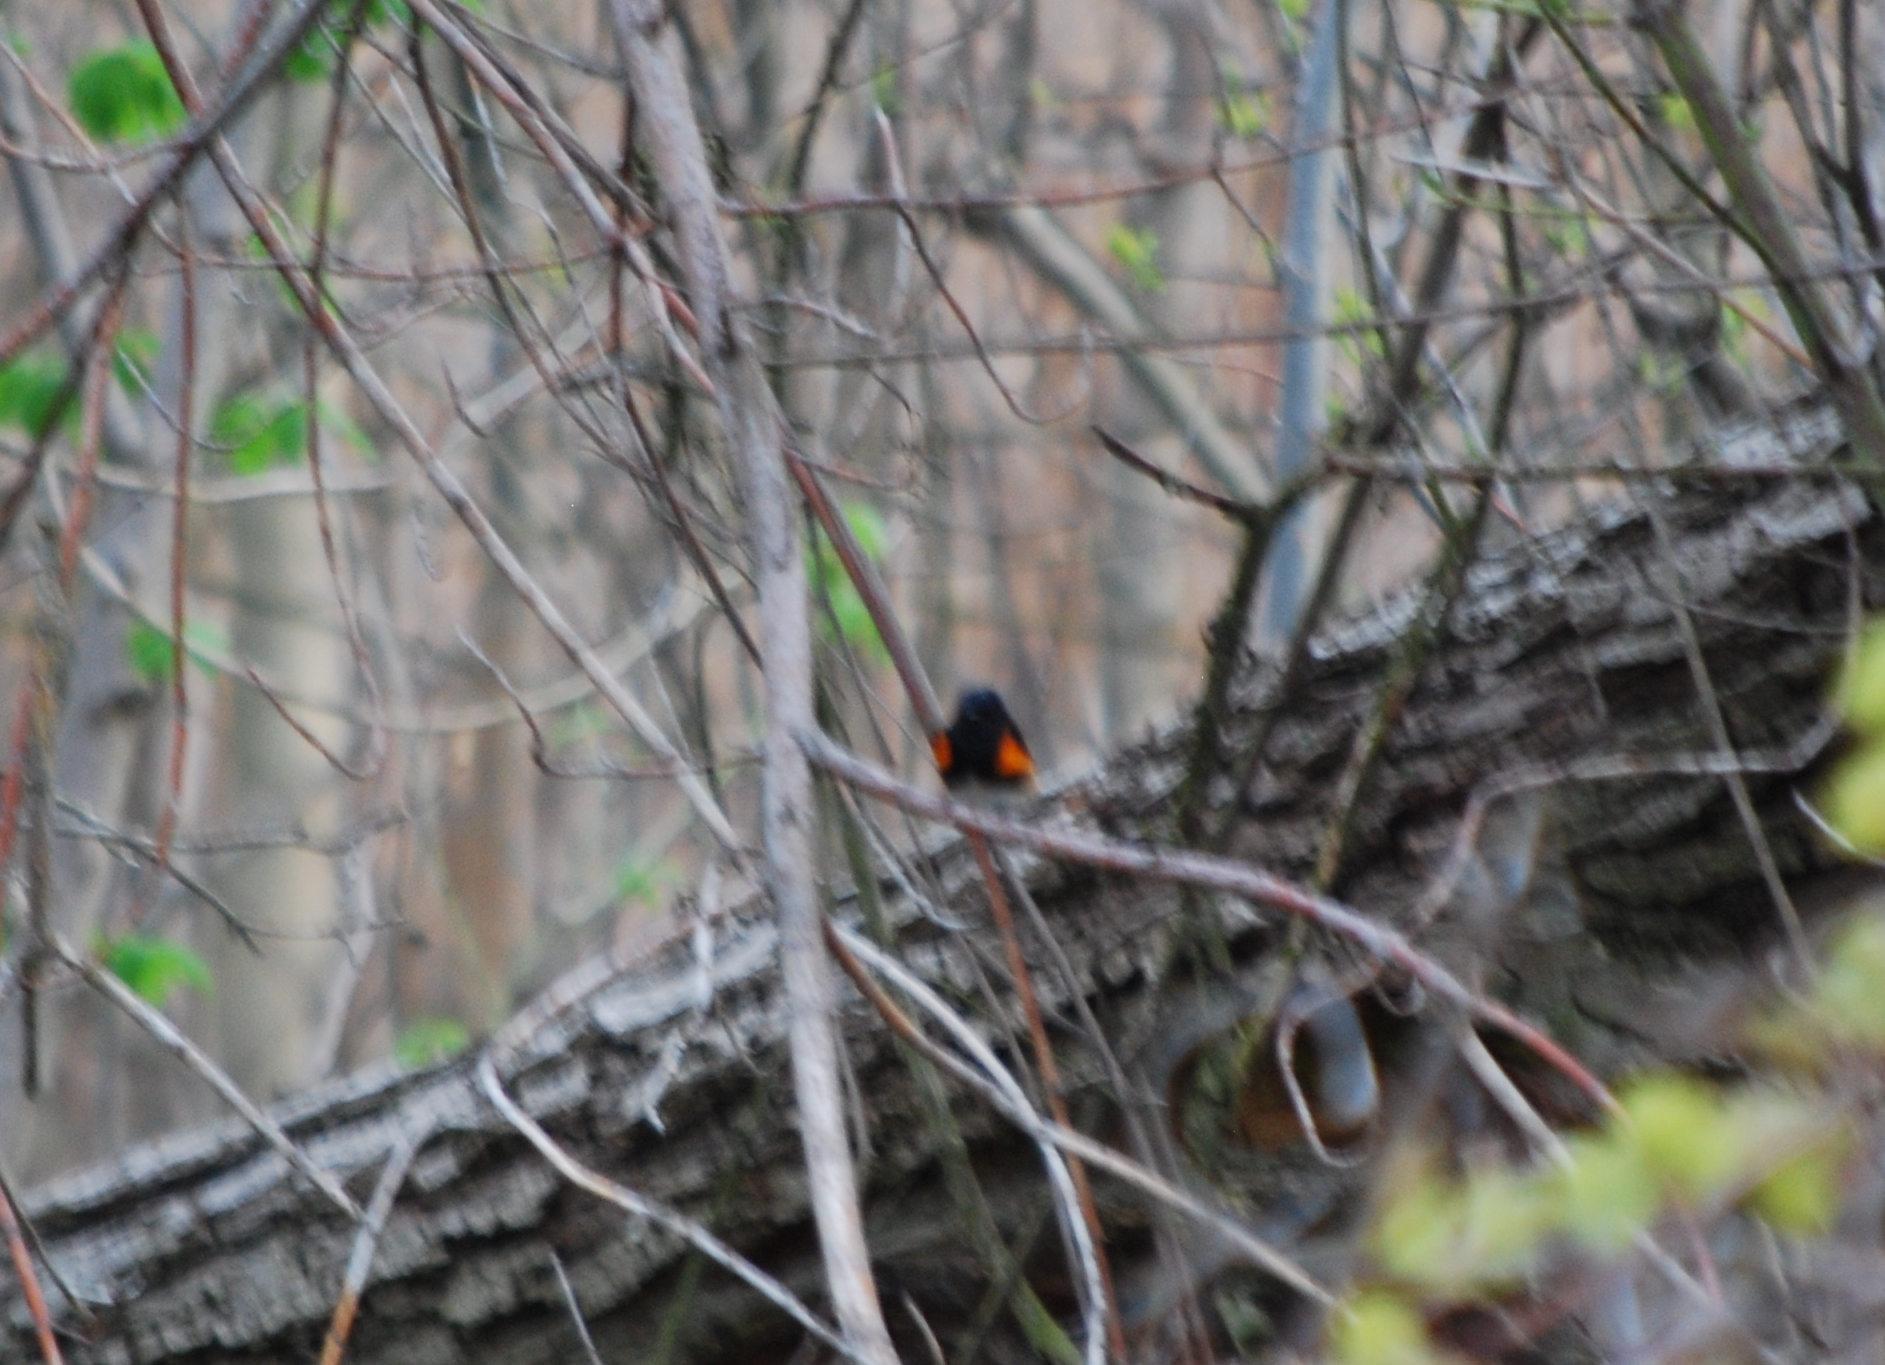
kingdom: Animalia
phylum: Chordata
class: Aves
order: Passeriformes
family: Parulidae
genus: Setophaga
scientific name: Setophaga ruticilla
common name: American redstart
